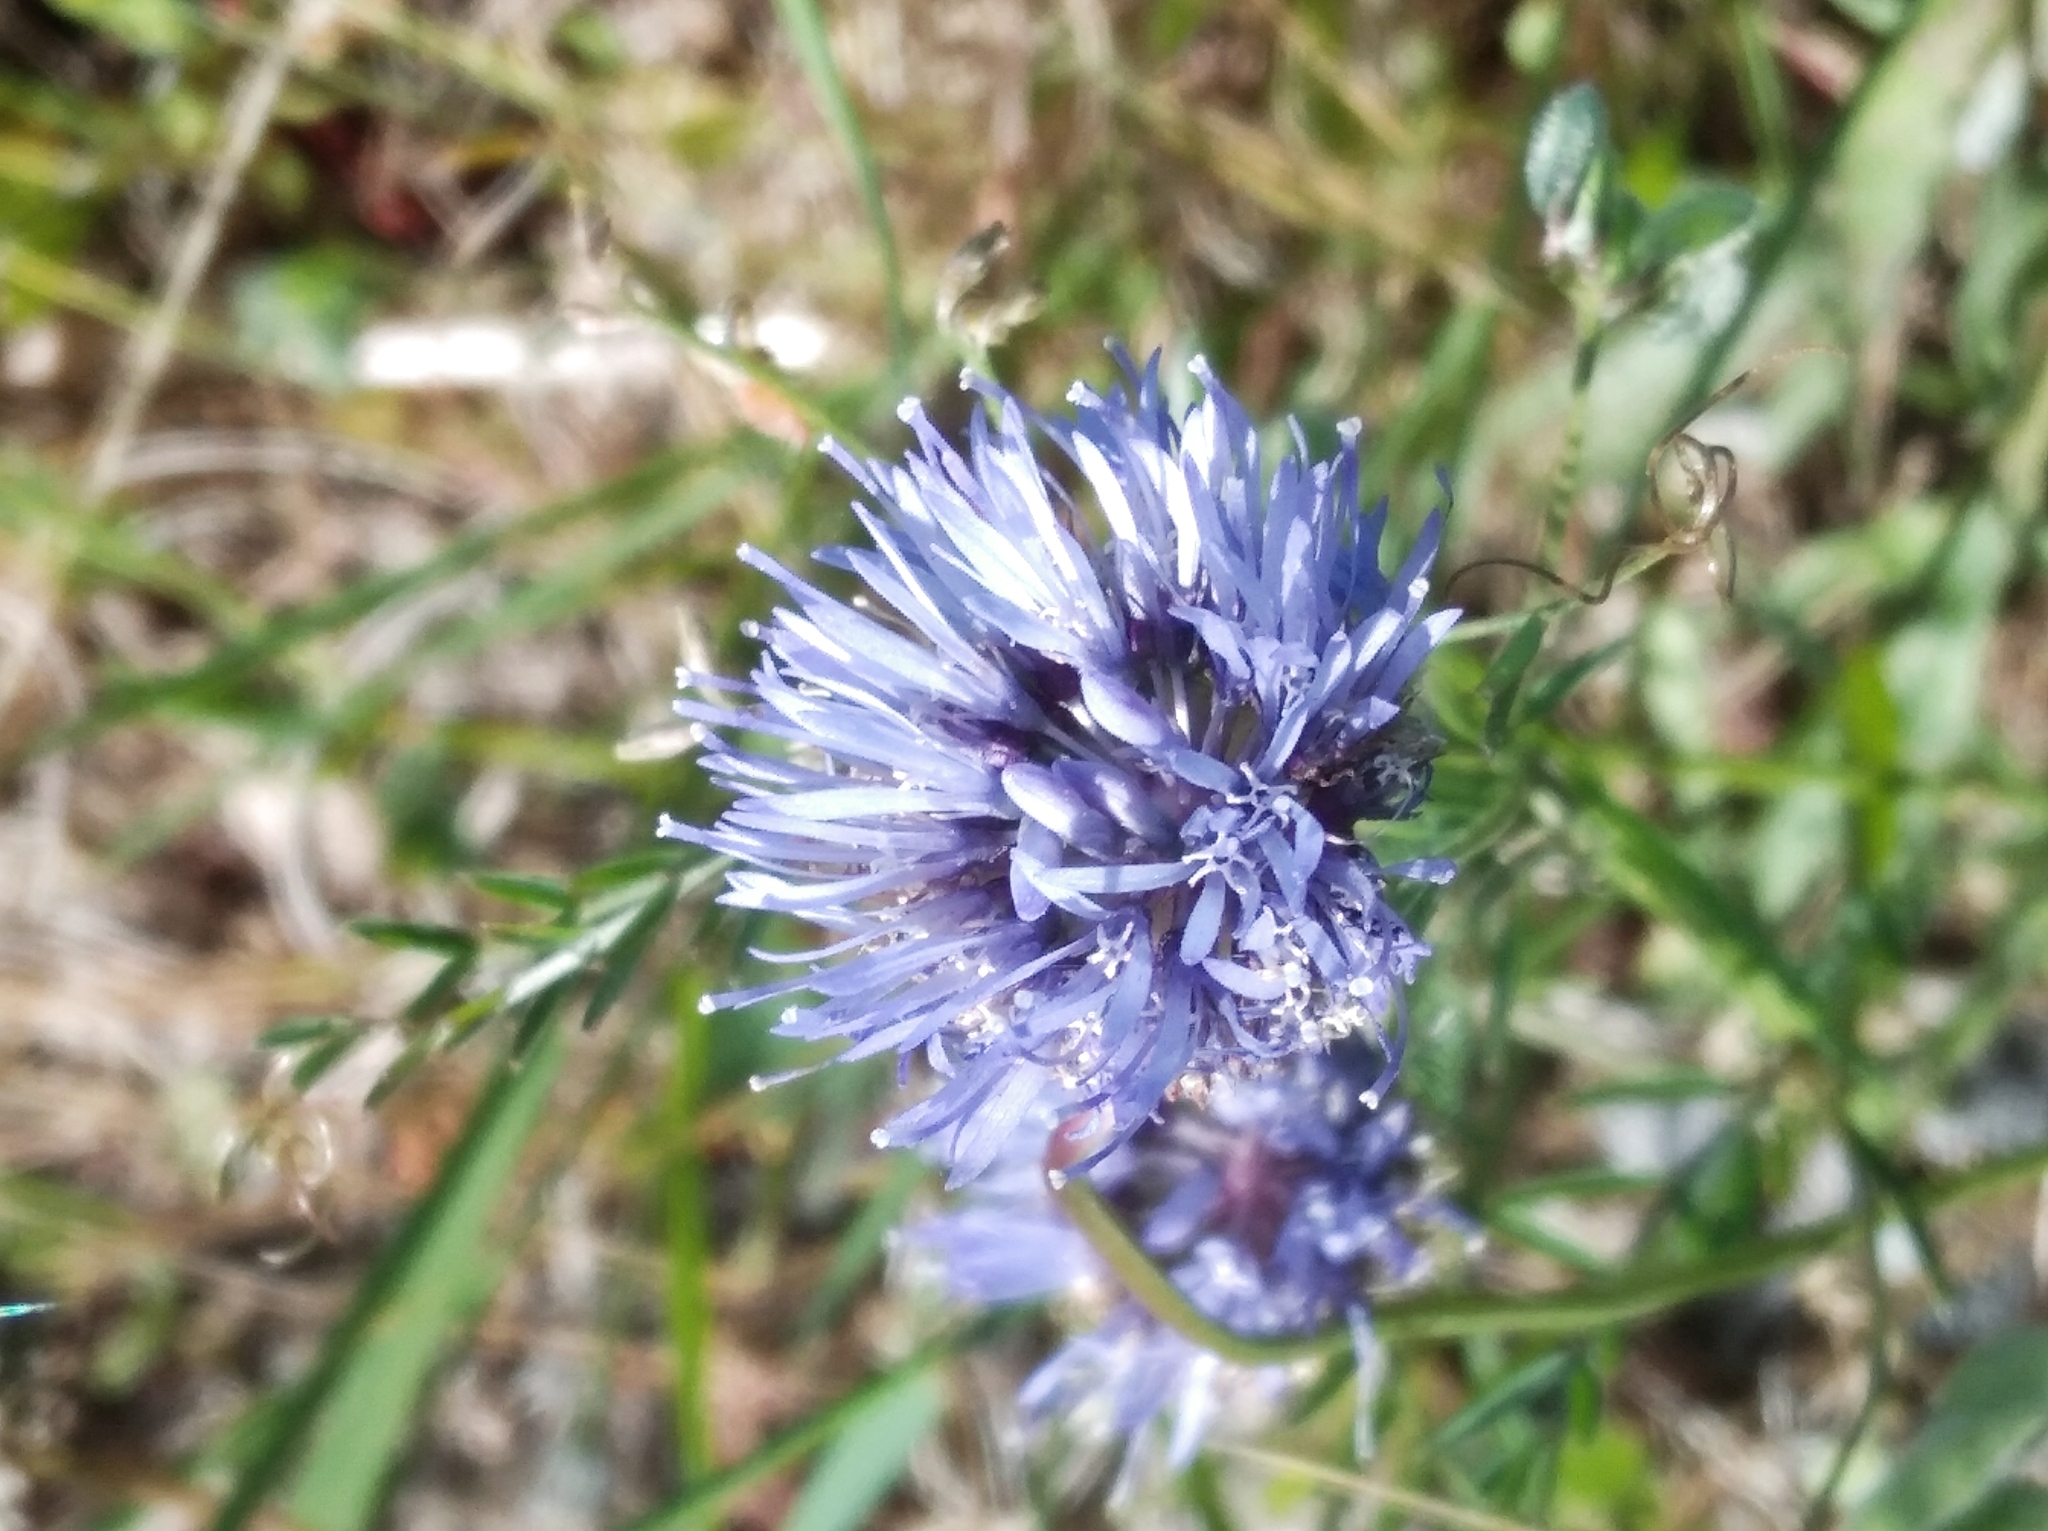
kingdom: Plantae
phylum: Tracheophyta
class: Magnoliopsida
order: Asterales
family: Campanulaceae
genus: Jasione
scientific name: Jasione montana
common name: Sheep's-bit
